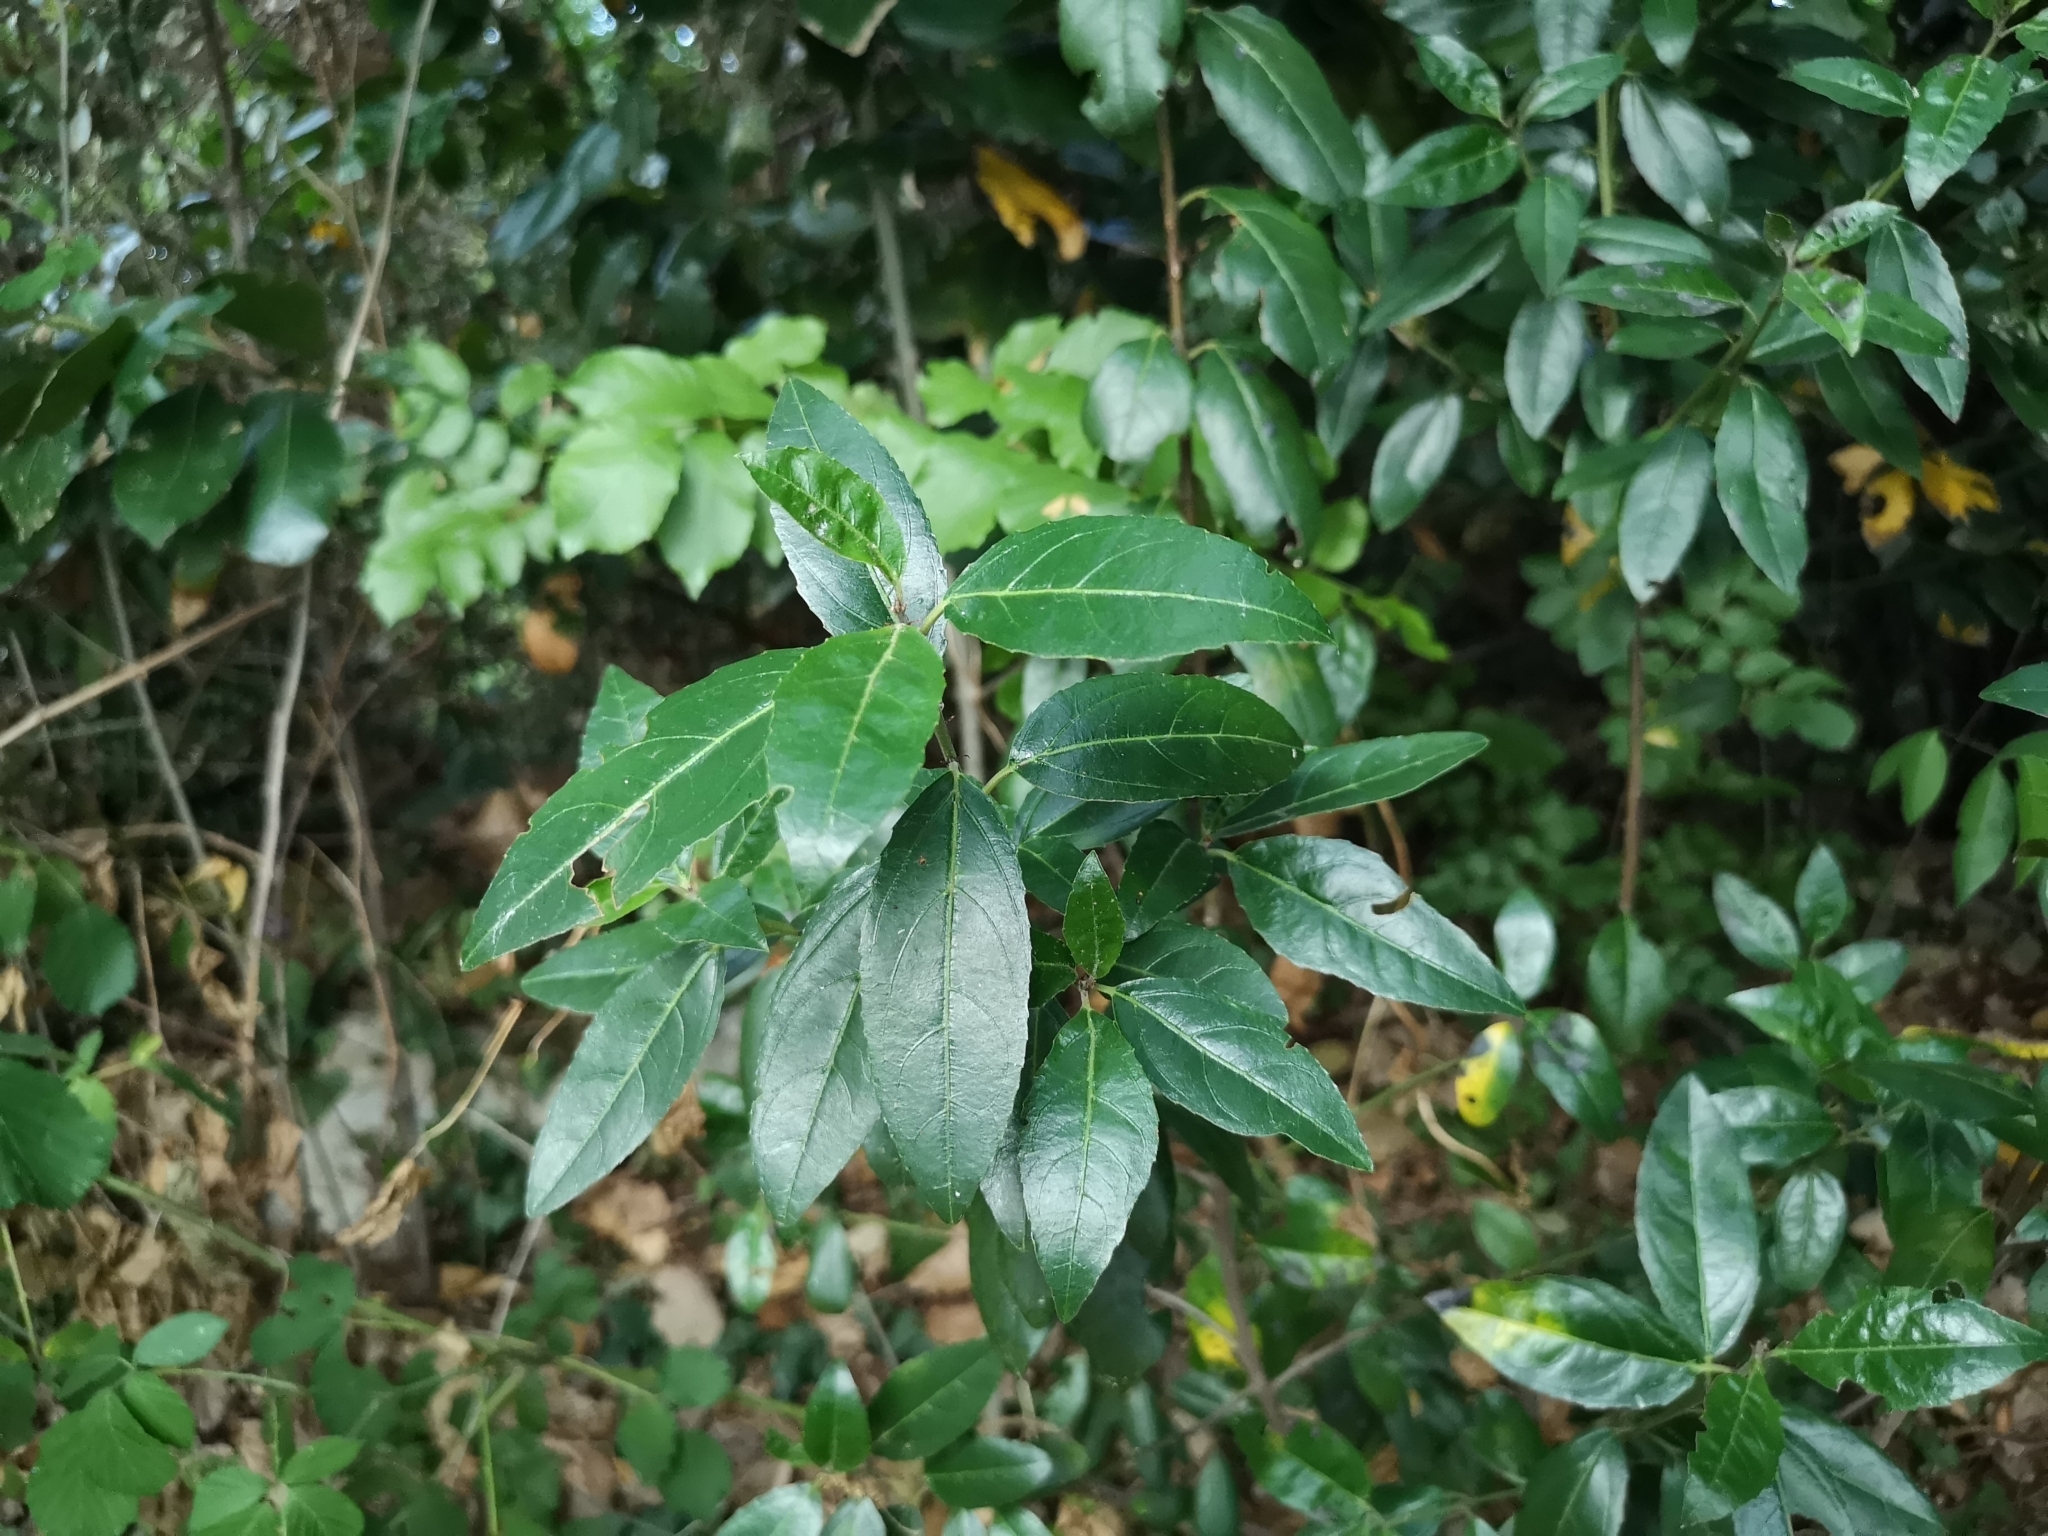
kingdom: Plantae
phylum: Tracheophyta
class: Magnoliopsida
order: Lamiales
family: Oleaceae
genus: Phillyrea
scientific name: Phillyrea latifolia
